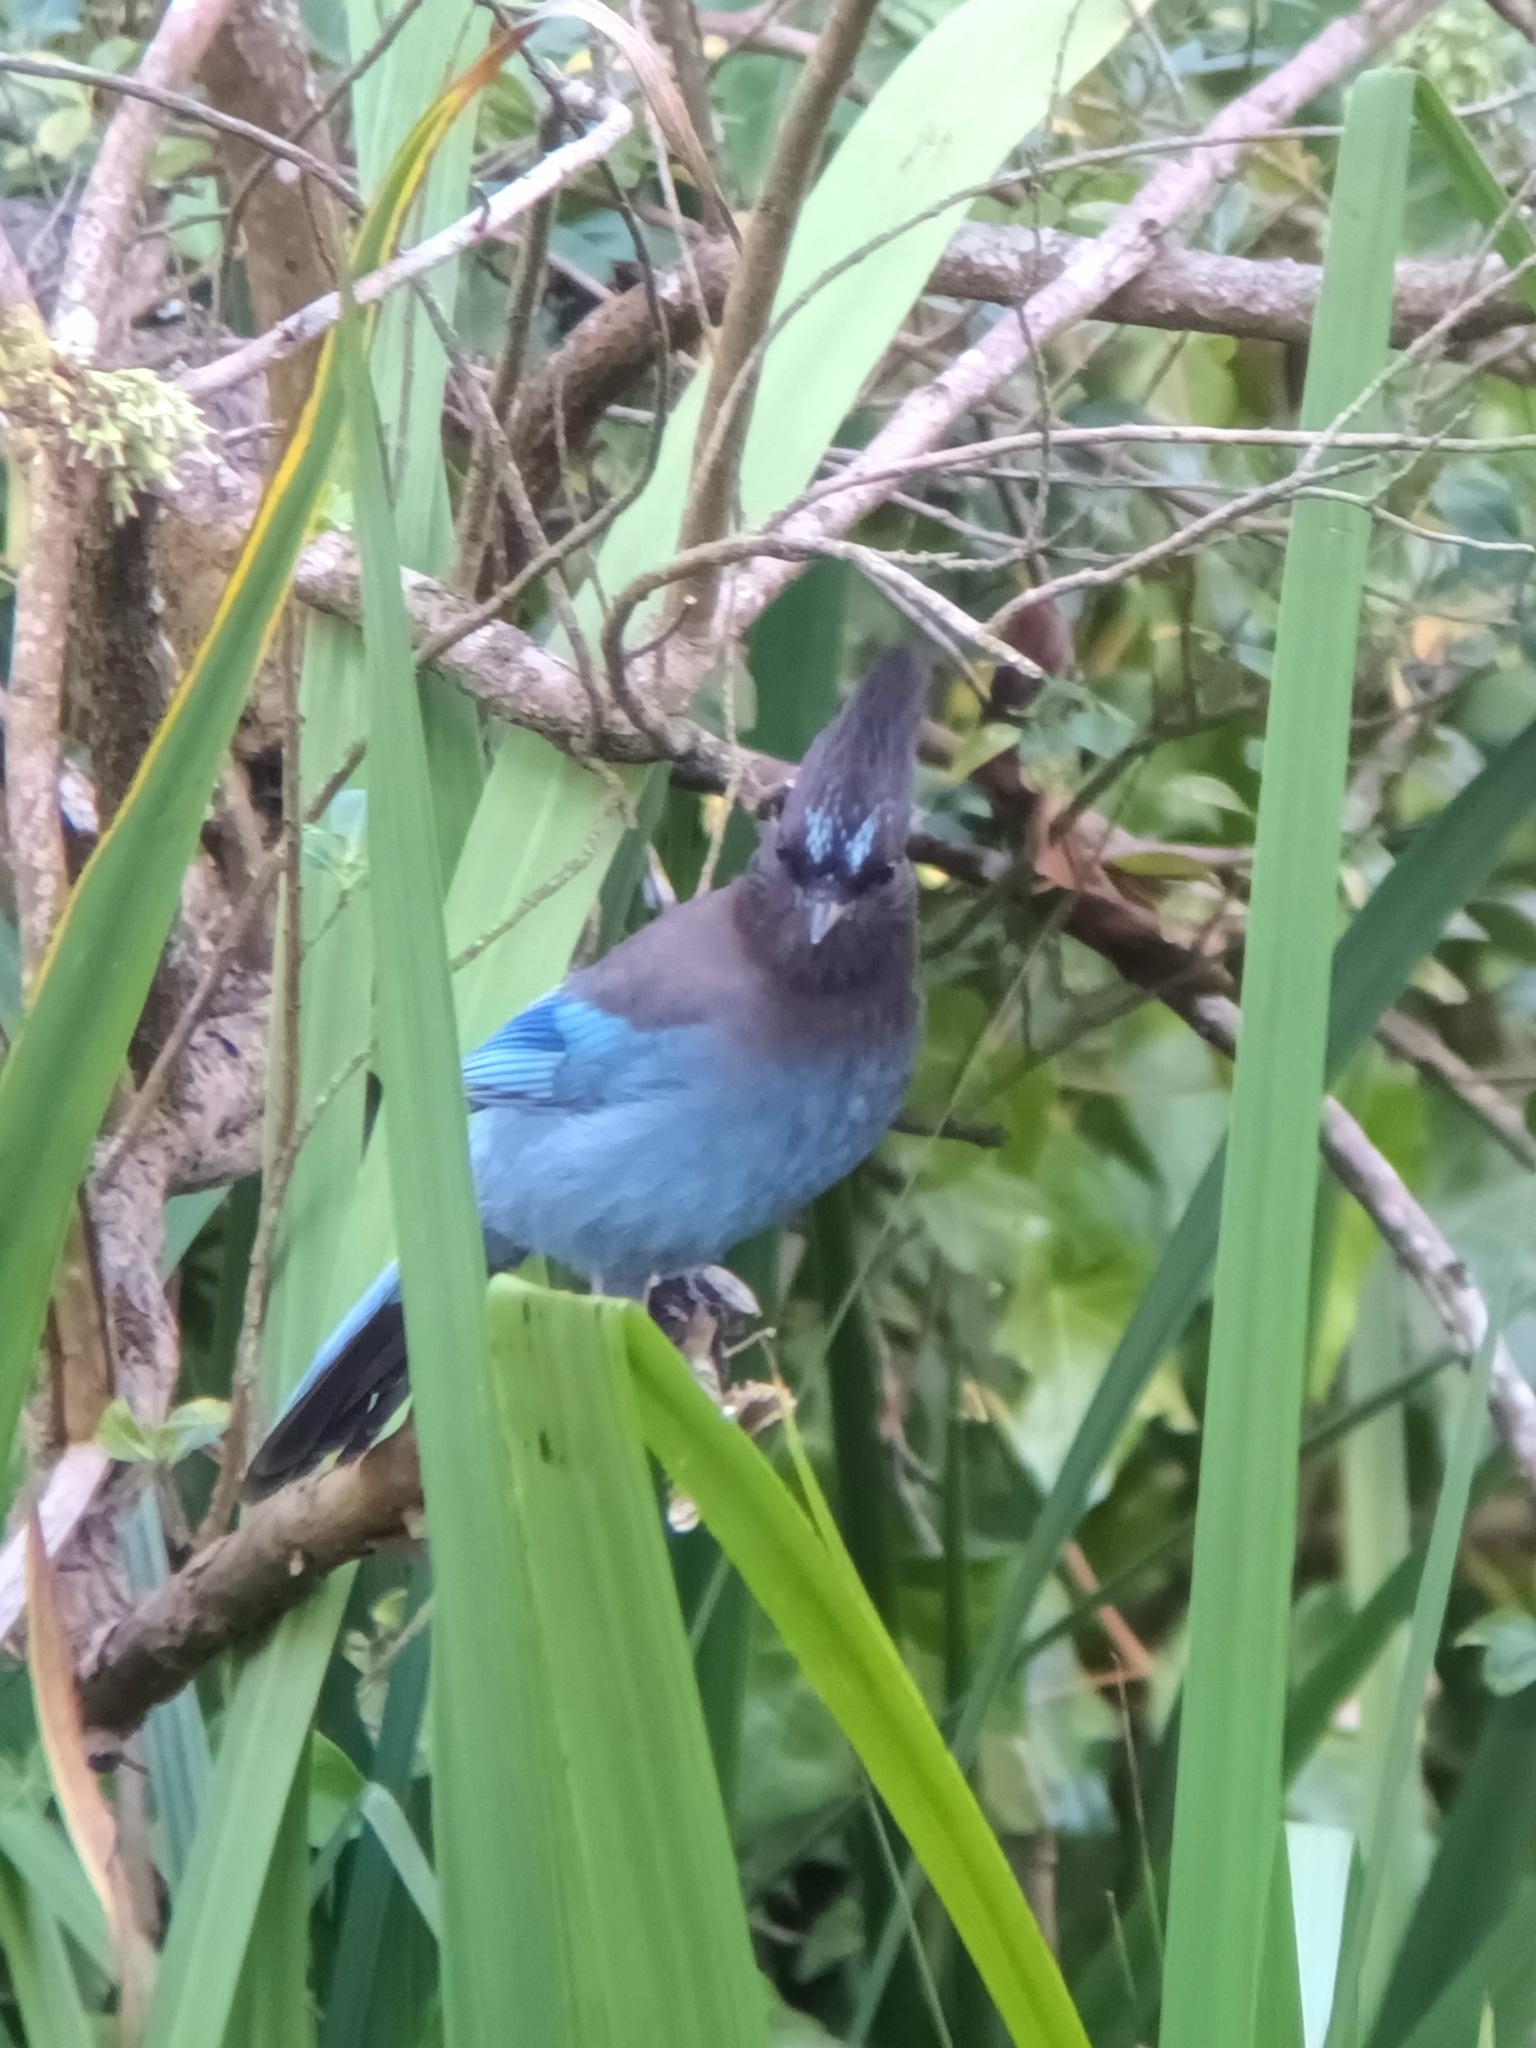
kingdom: Animalia
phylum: Chordata
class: Aves
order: Passeriformes
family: Corvidae
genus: Cyanocitta
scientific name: Cyanocitta stelleri
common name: Steller's jay
